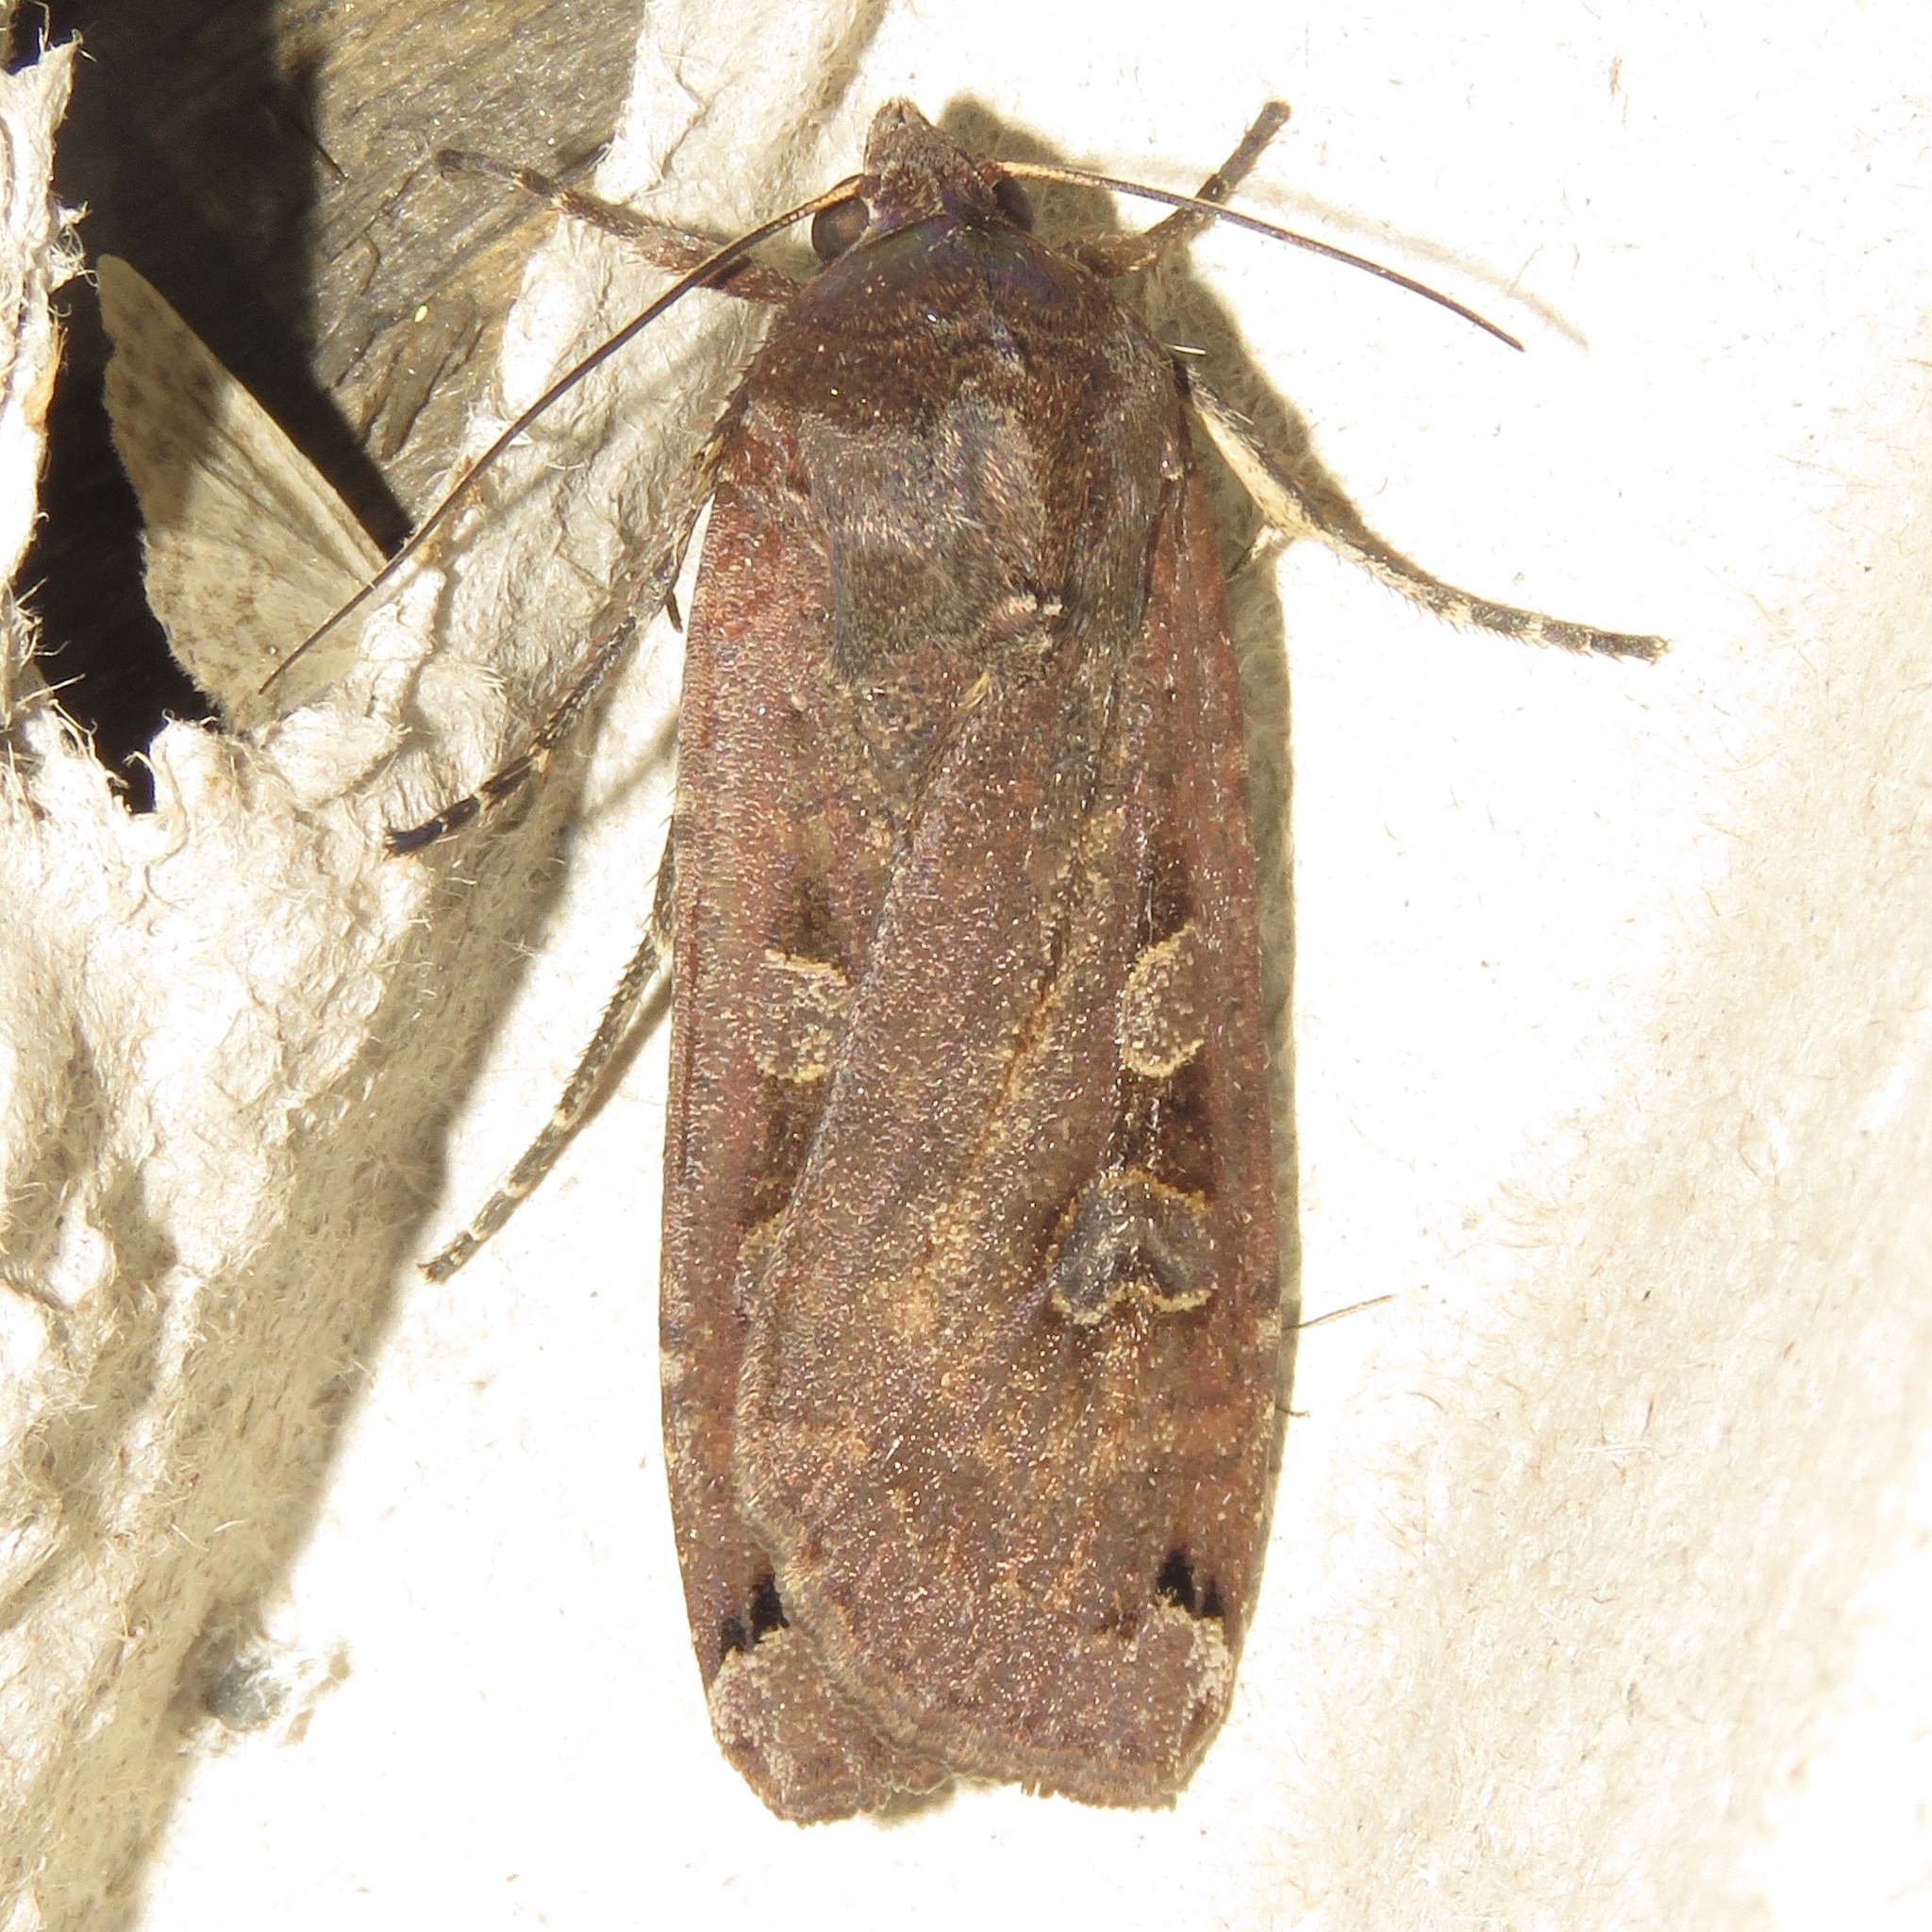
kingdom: Animalia
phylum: Arthropoda
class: Insecta
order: Lepidoptera
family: Noctuidae
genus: Noctua
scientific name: Noctua pronuba
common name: Large yellow underwing
